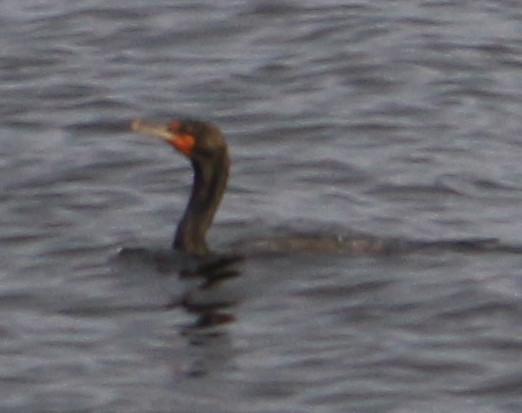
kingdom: Animalia
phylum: Chordata
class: Aves
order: Suliformes
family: Phalacrocoracidae
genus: Phalacrocorax
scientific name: Phalacrocorax brasilianus
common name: Neotropic cormorant
